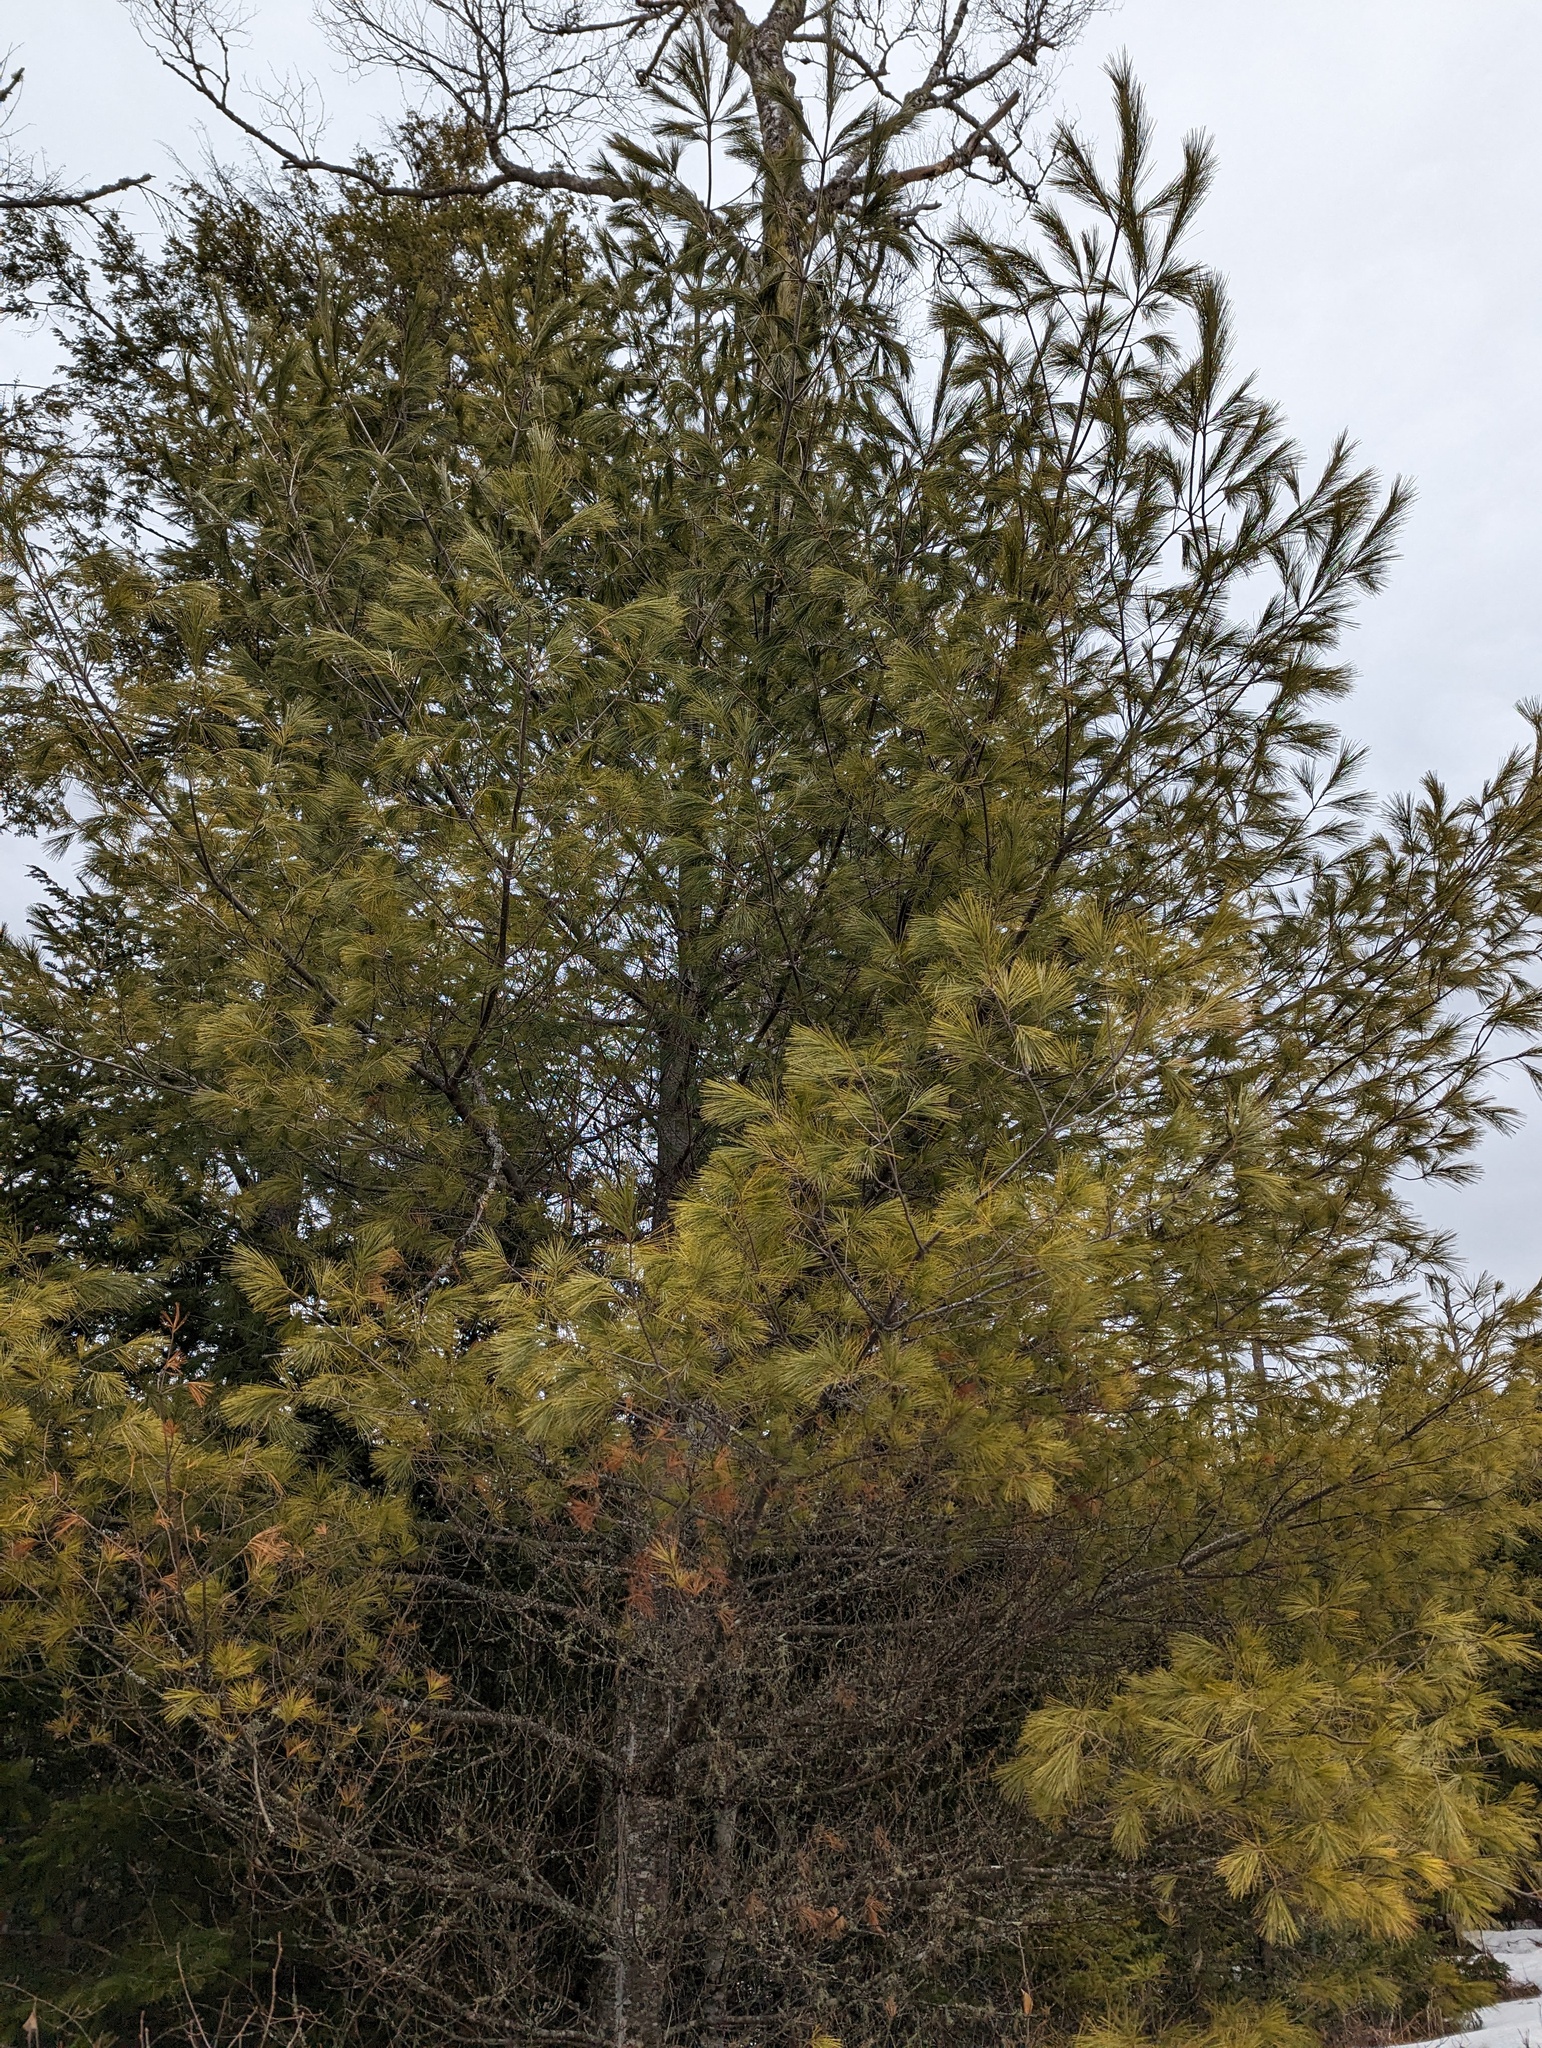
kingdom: Plantae
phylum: Tracheophyta
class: Pinopsida
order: Pinales
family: Pinaceae
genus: Pinus
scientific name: Pinus strobus
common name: Weymouth pine
